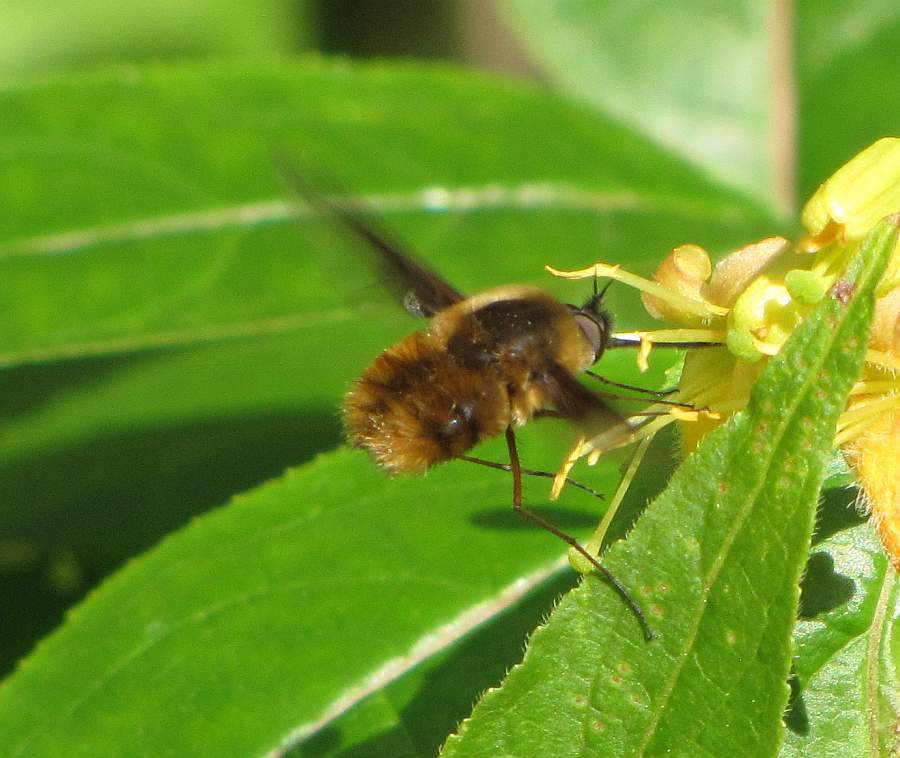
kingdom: Animalia
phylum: Arthropoda
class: Insecta
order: Diptera
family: Bombyliidae
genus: Bombylius
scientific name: Bombylius mexicanus
